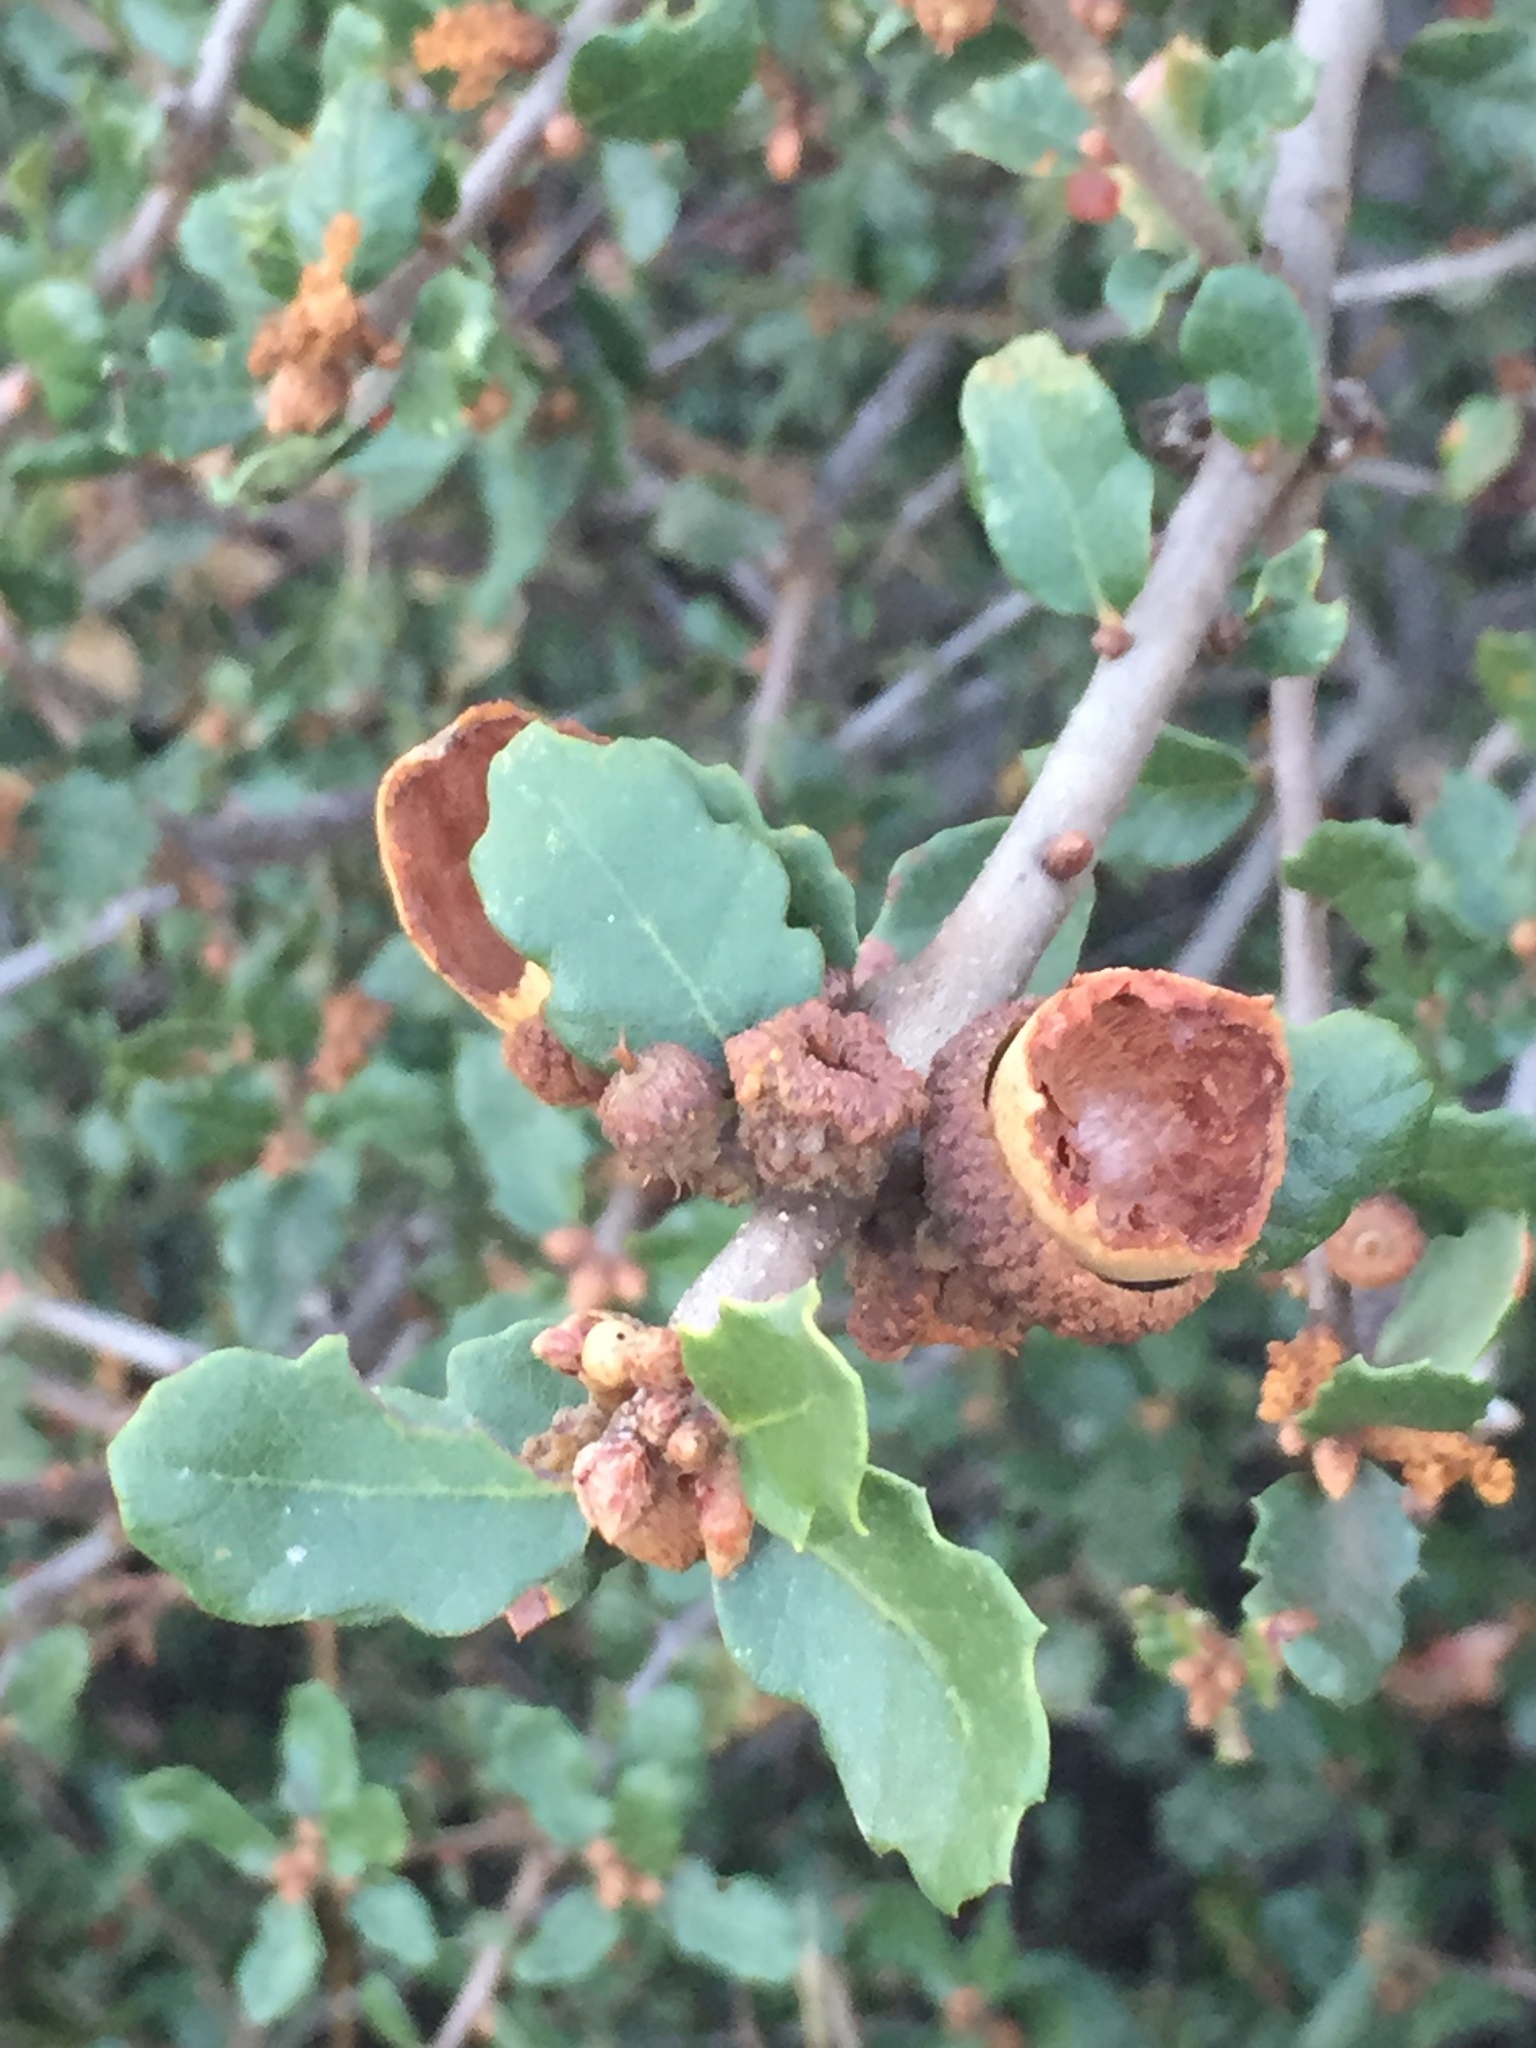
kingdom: Plantae
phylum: Tracheophyta
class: Magnoliopsida
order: Fagales
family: Fagaceae
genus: Quercus
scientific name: Quercus berberidifolia
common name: California scrub oak
